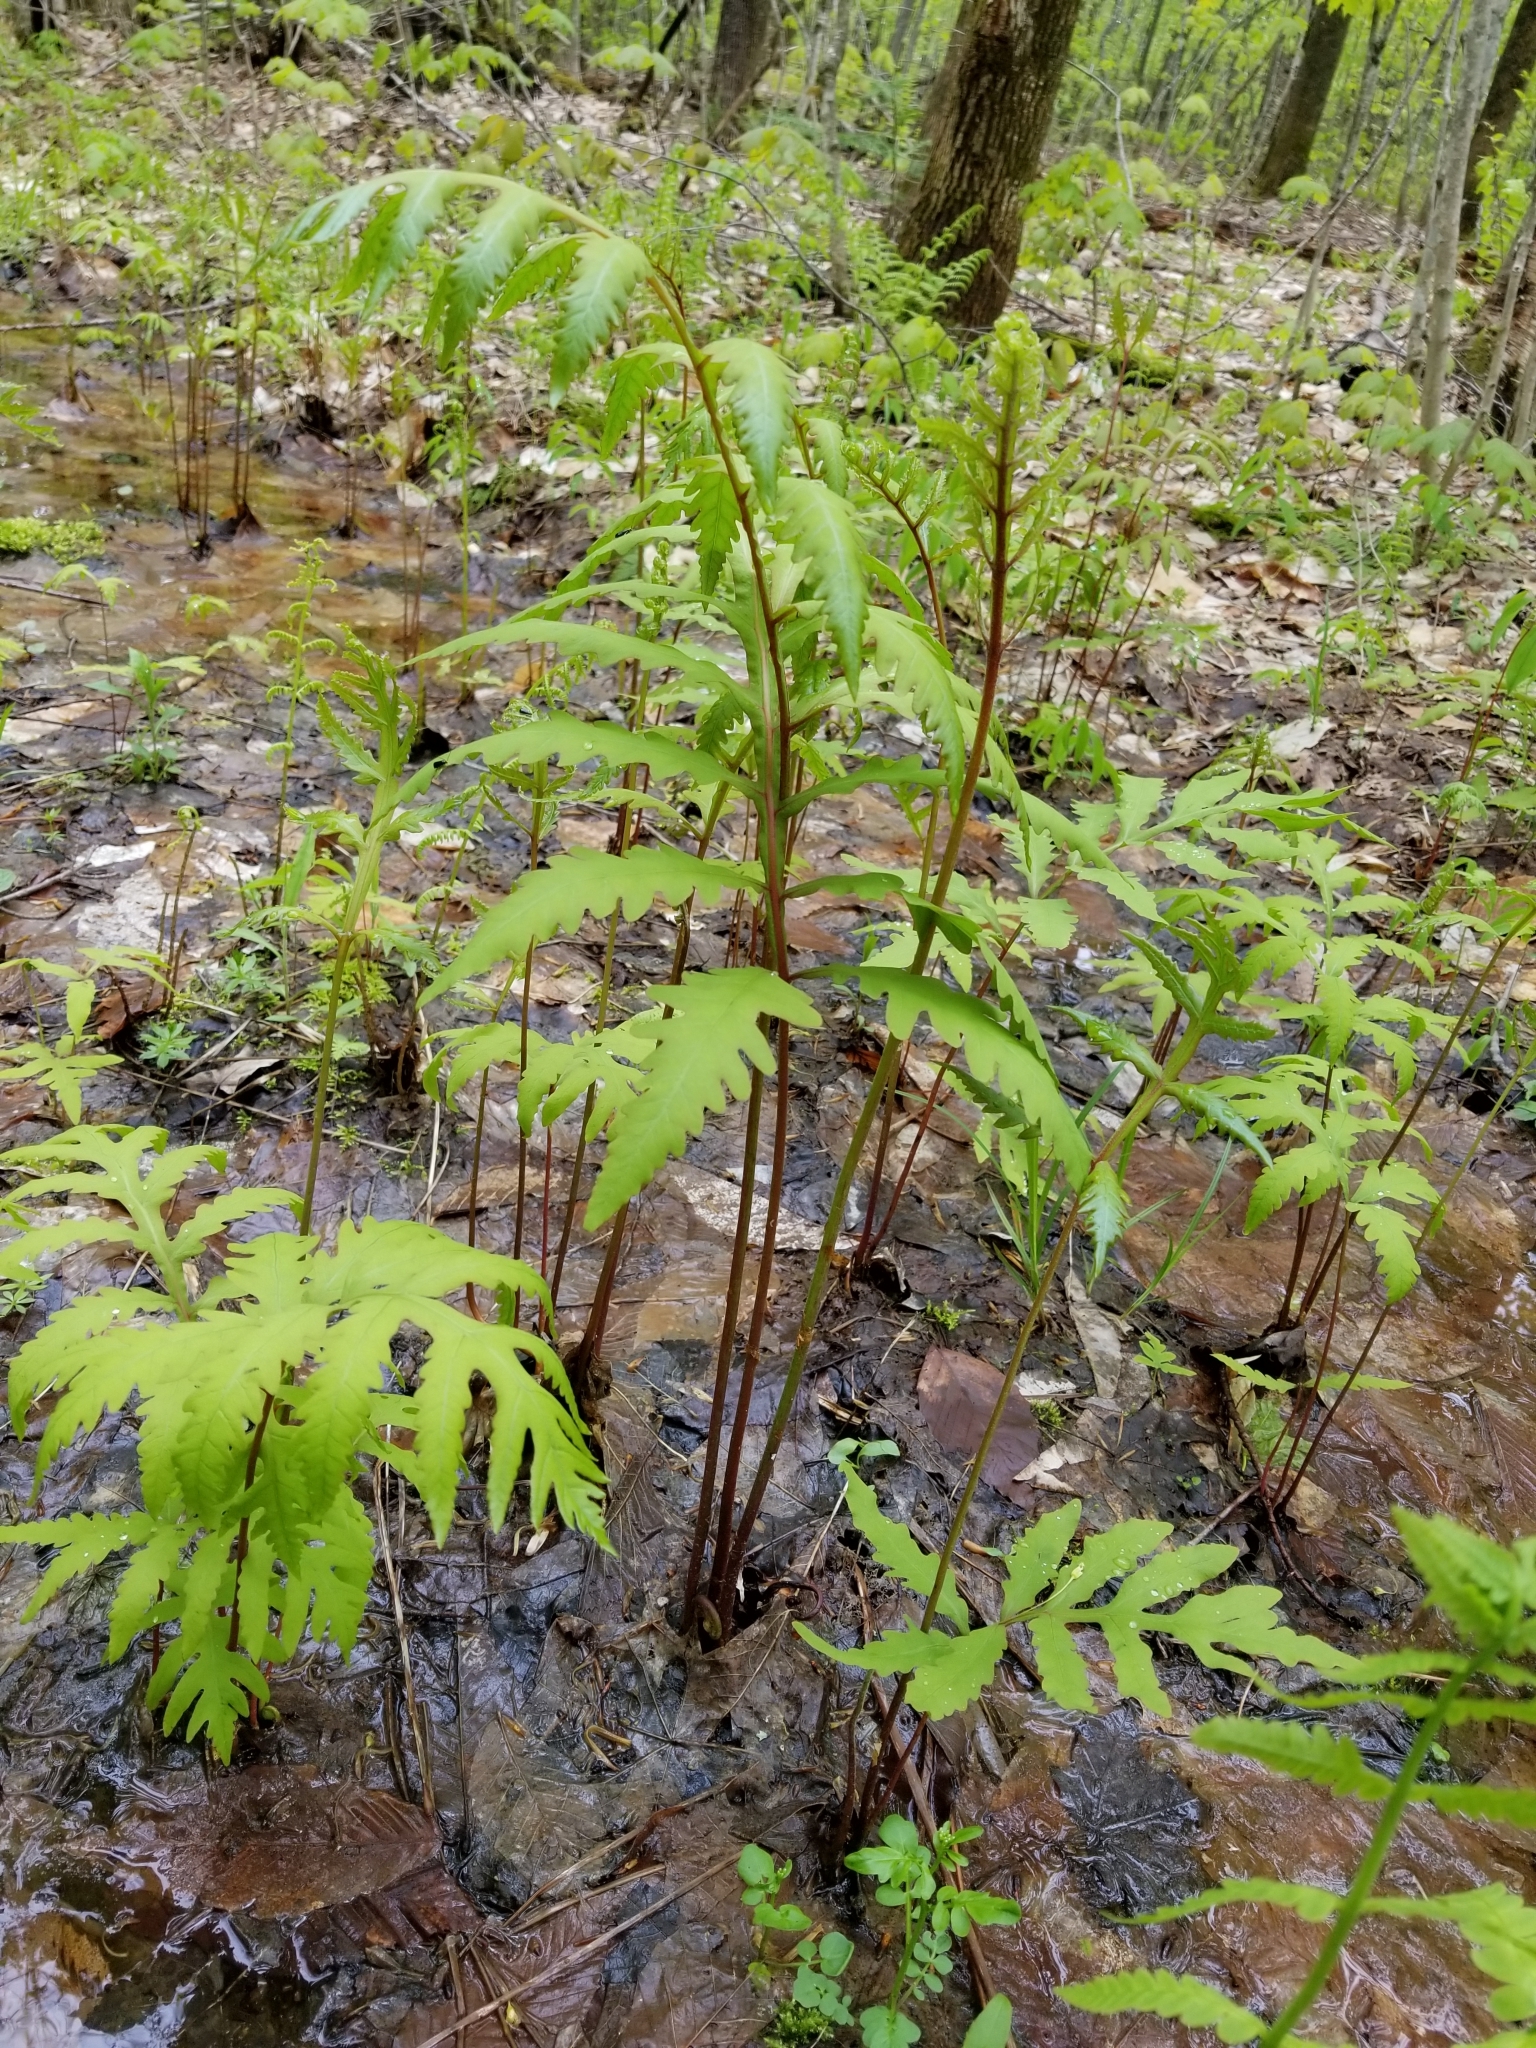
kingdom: Plantae
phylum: Tracheophyta
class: Polypodiopsida
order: Polypodiales
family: Onocleaceae
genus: Onoclea
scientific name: Onoclea sensibilis
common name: Sensitive fern
